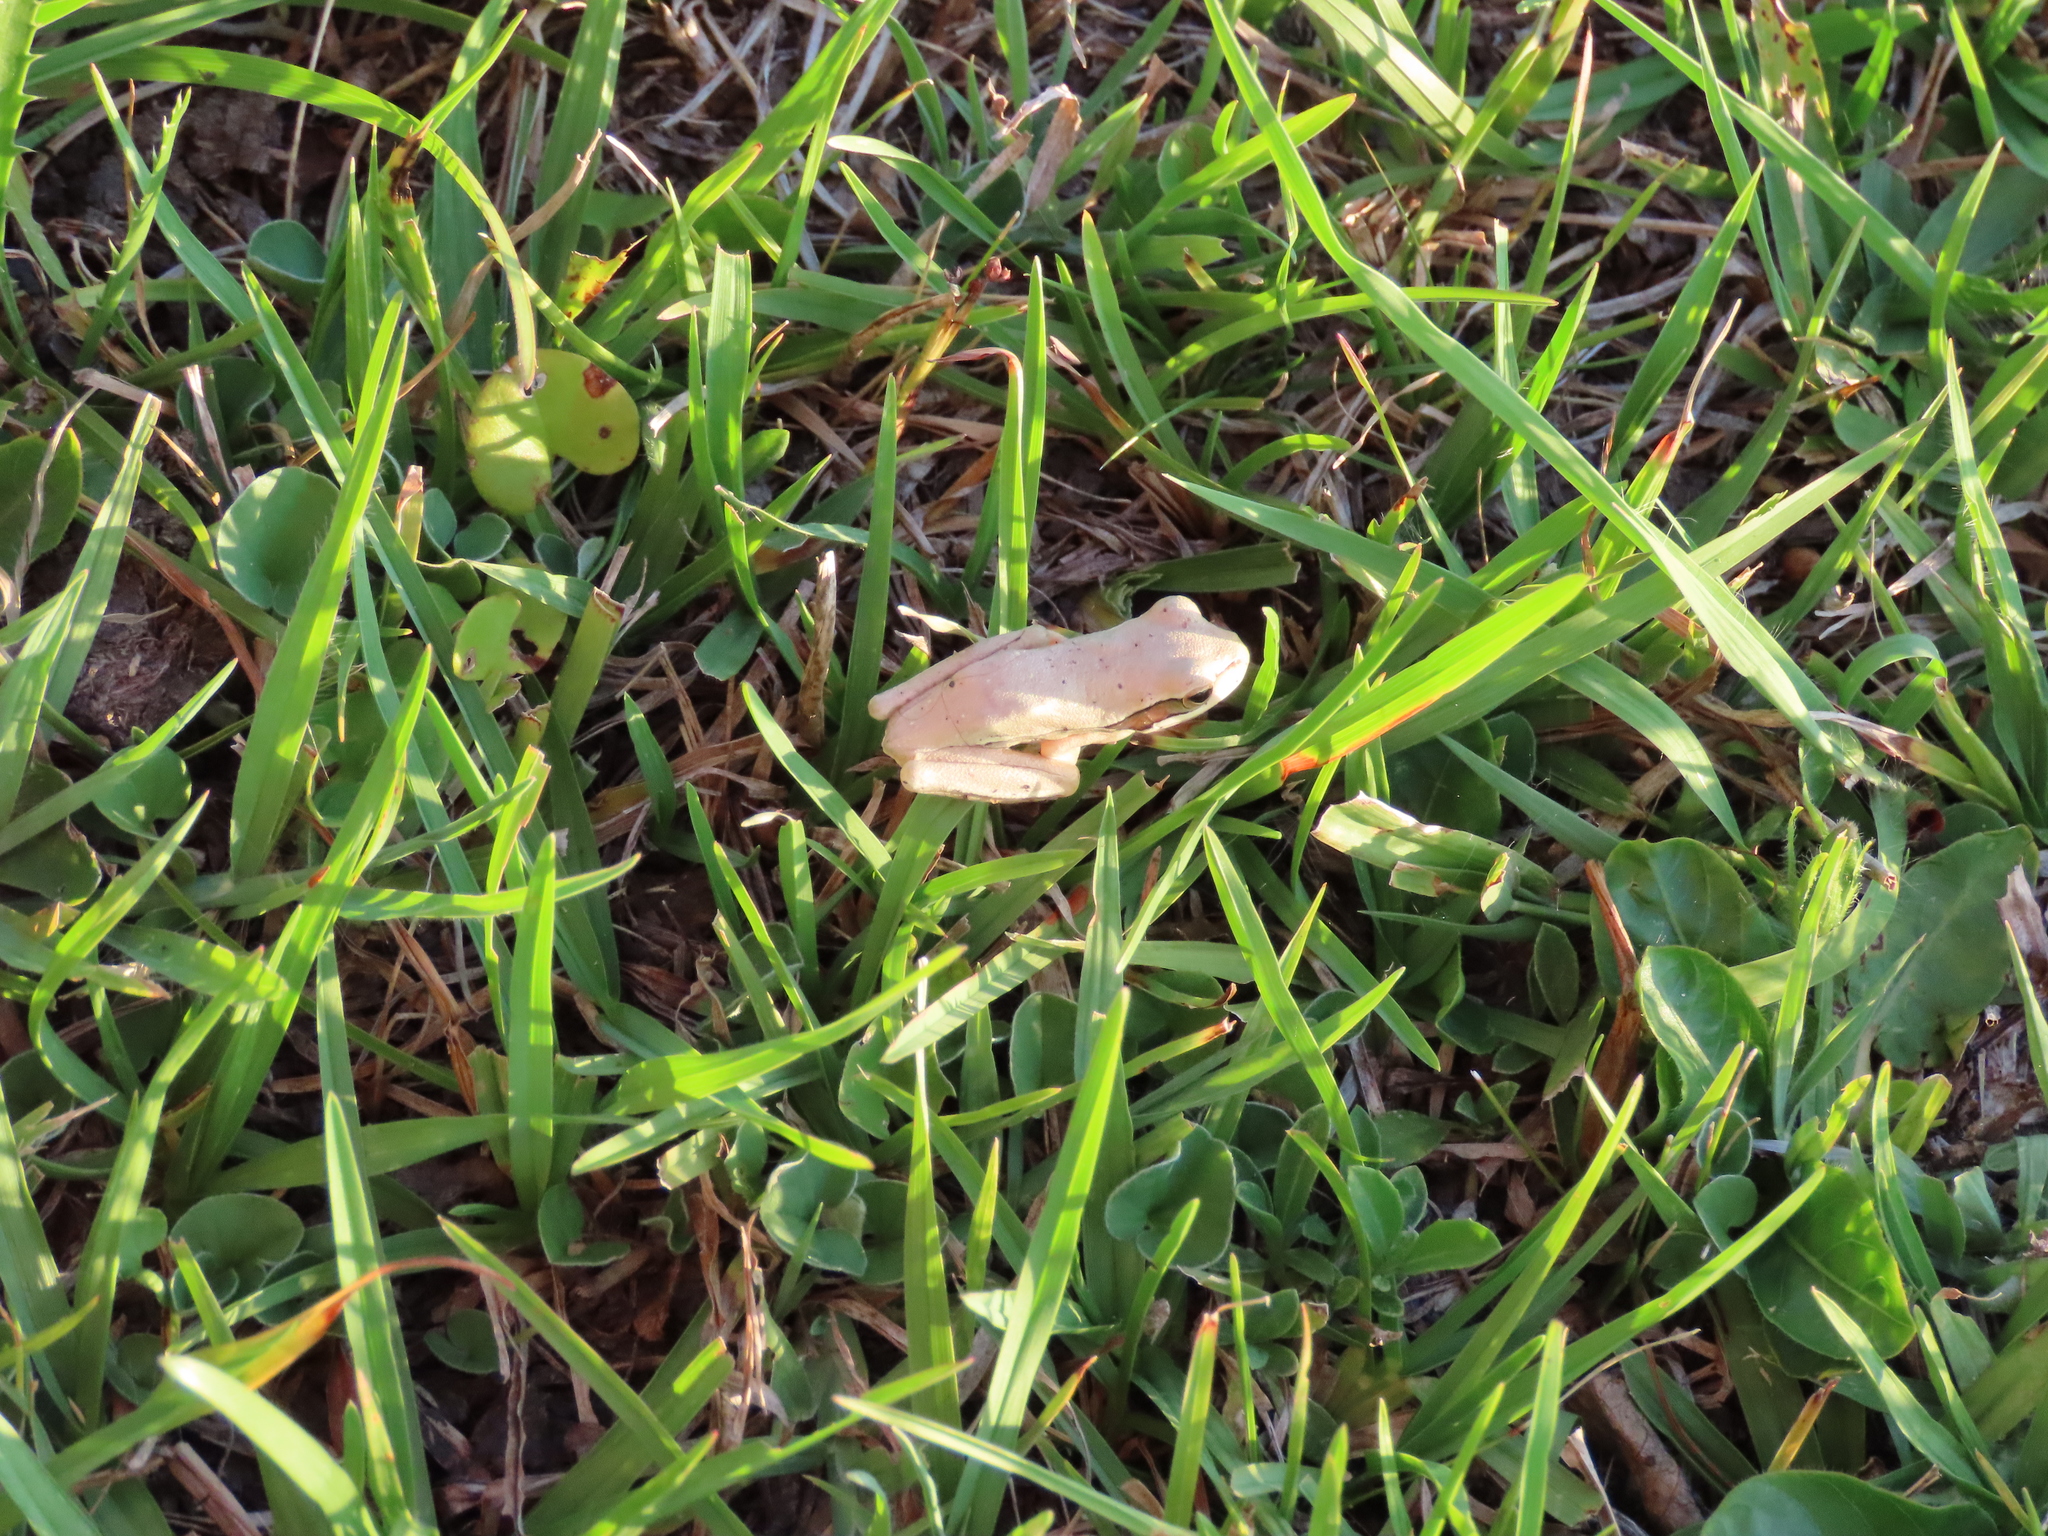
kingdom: Animalia
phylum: Chordata
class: Amphibia
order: Anura
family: Hylidae
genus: Boana
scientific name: Boana pulchella
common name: Montevideo treefrog
